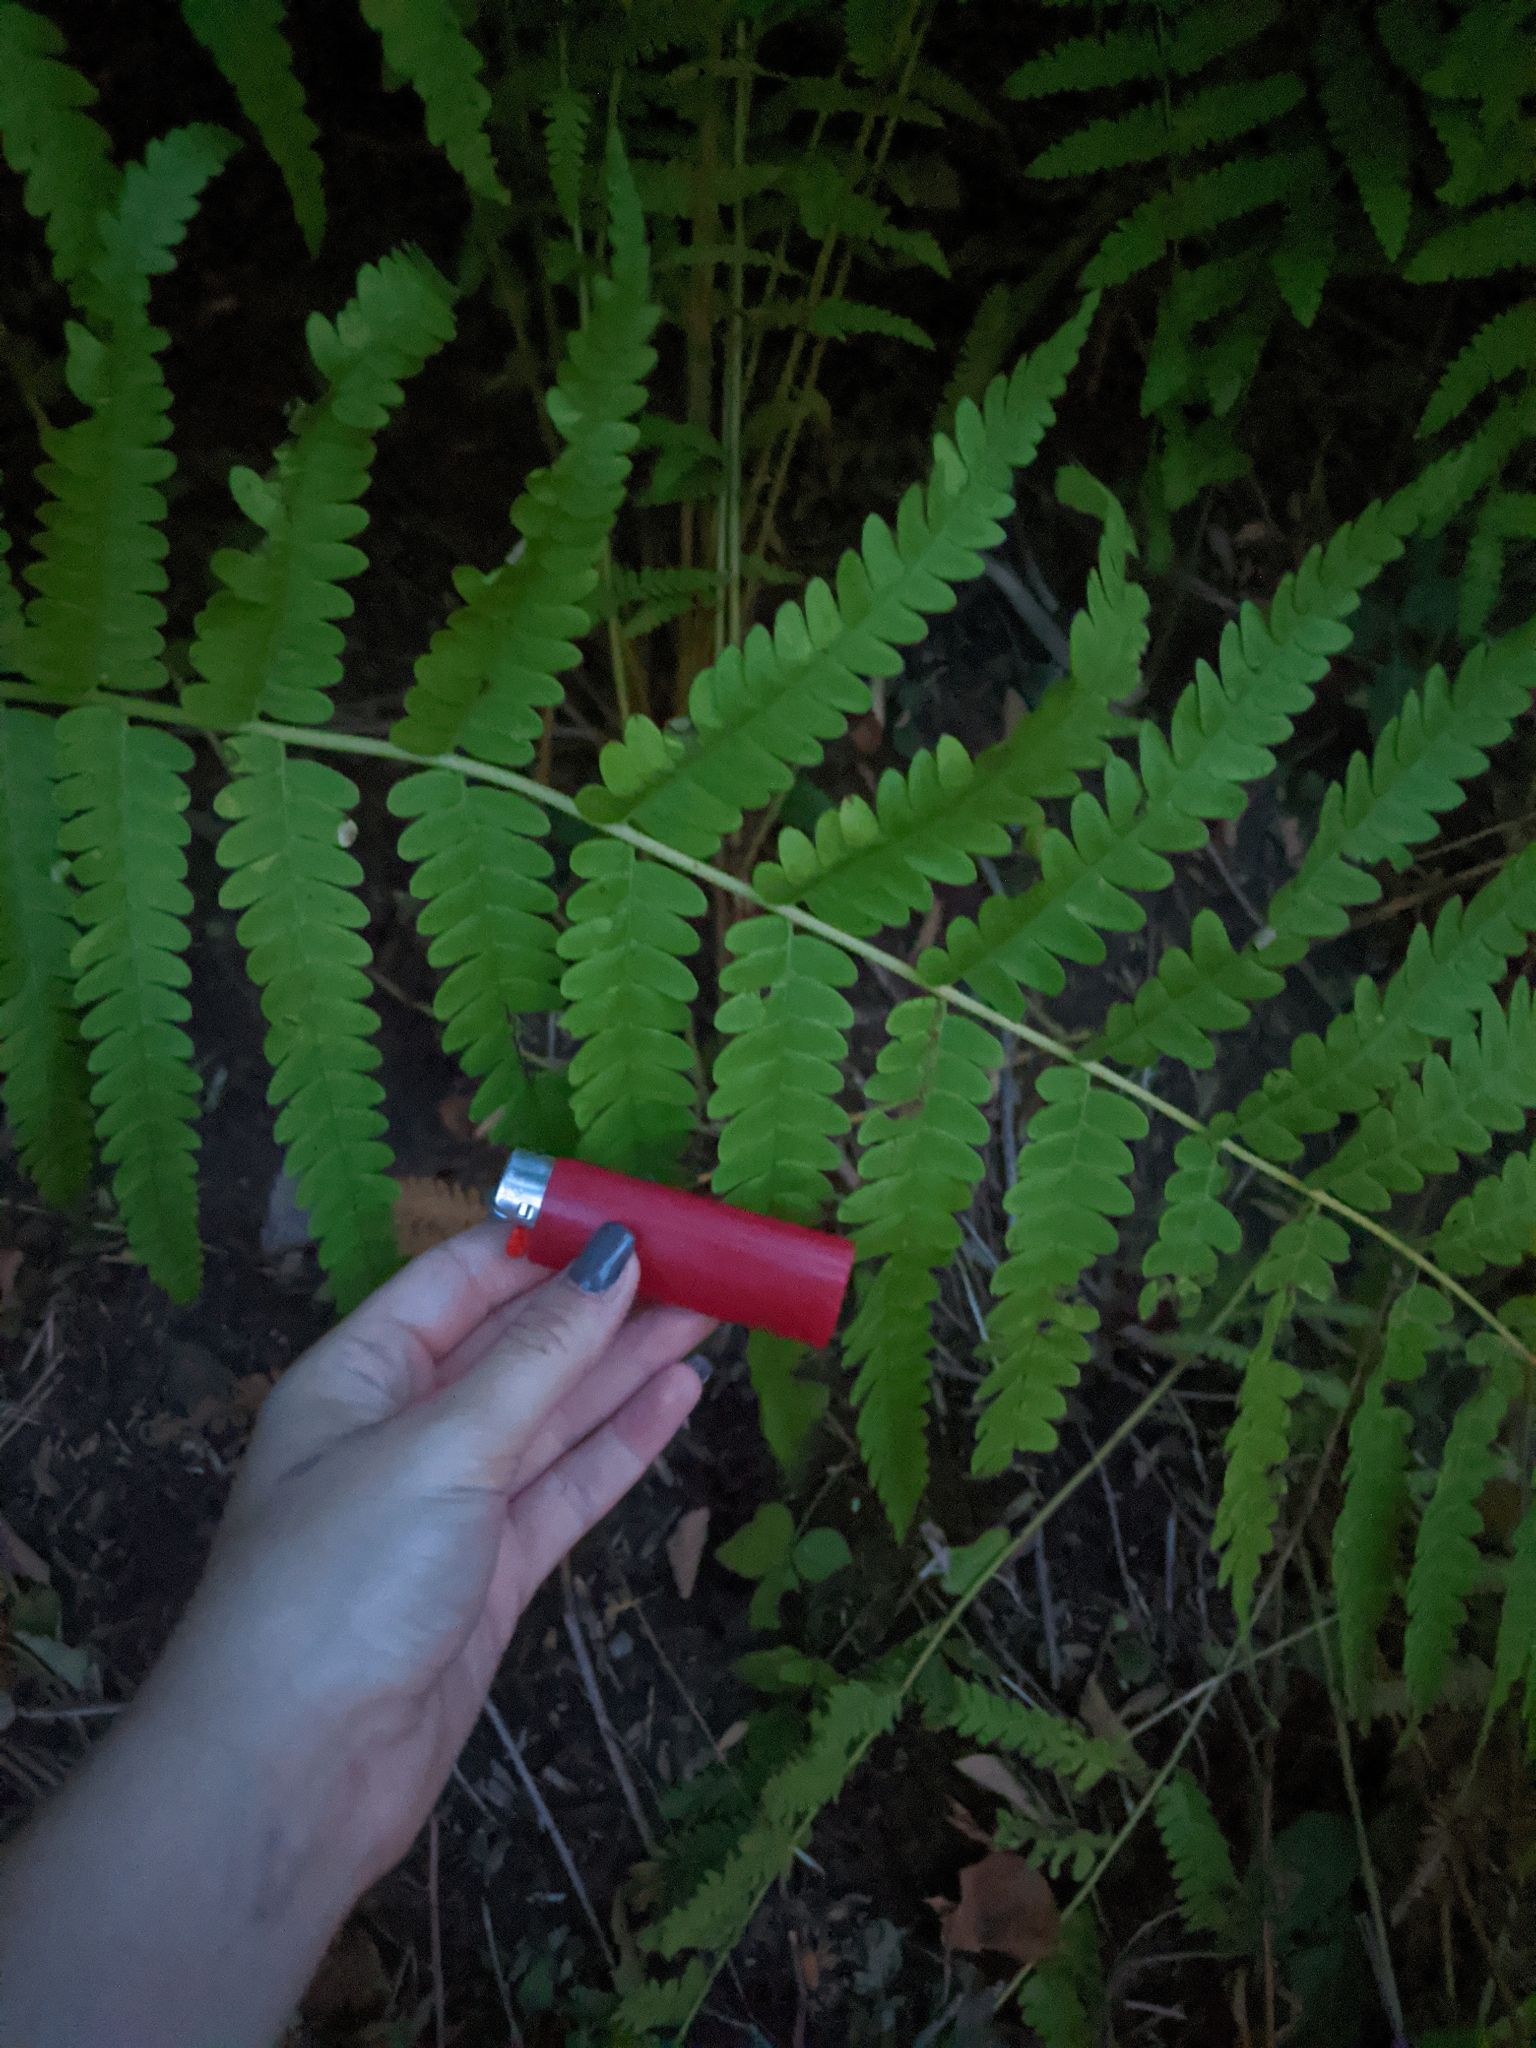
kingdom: Plantae
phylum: Tracheophyta
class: Polypodiopsida
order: Osmundales
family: Osmundaceae
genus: Osmundastrum
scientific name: Osmundastrum cinnamomeum
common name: Cinnamon fern
